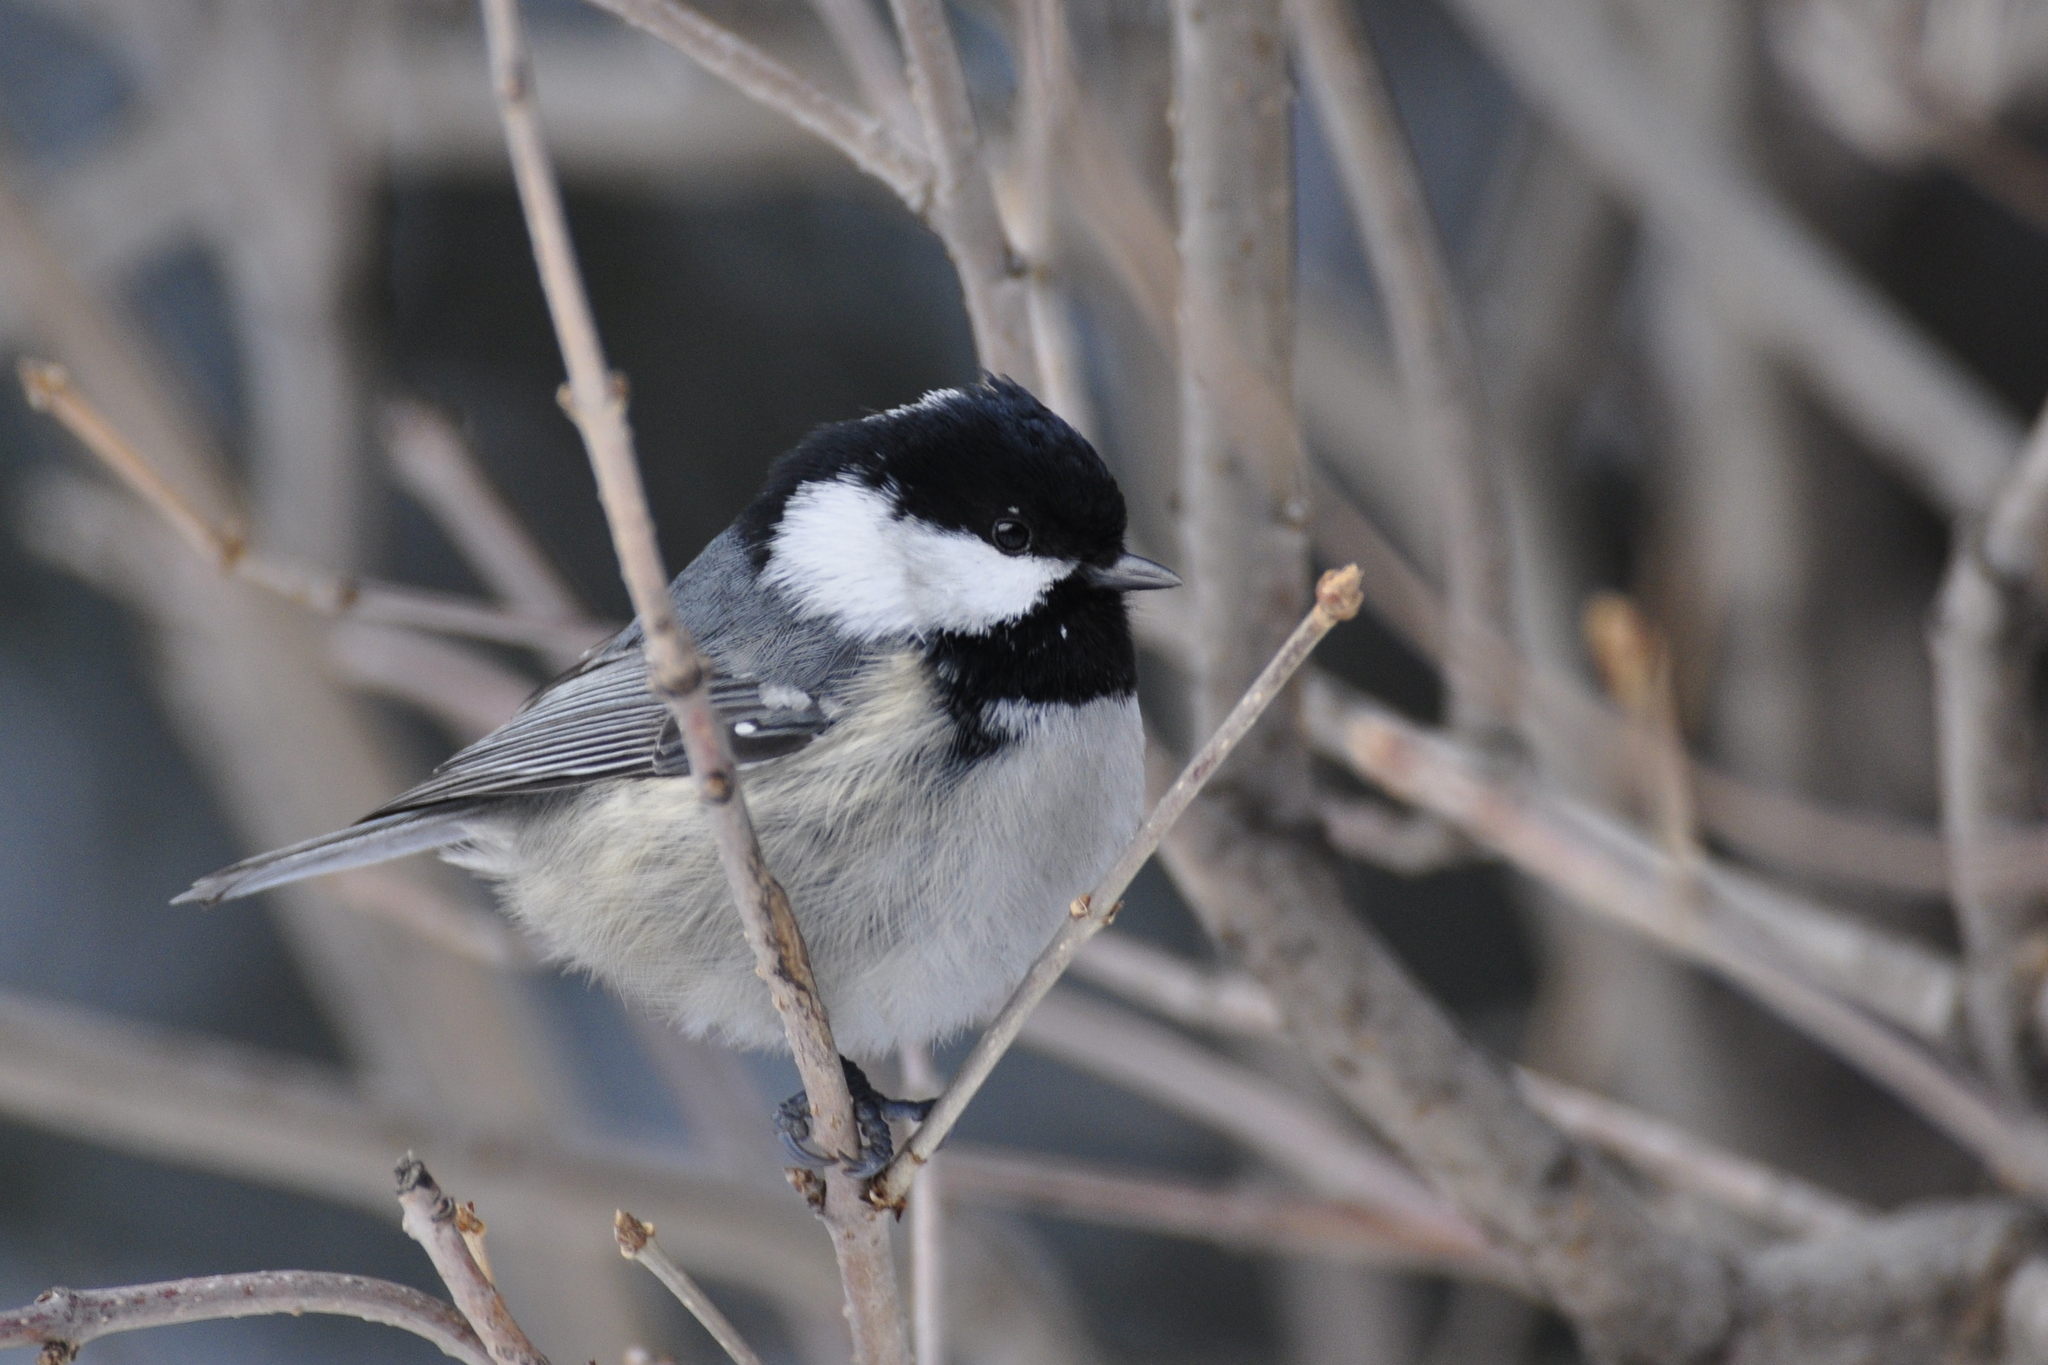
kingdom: Animalia
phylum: Chordata
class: Aves
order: Passeriformes
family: Paridae
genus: Periparus
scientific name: Periparus ater
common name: Coal tit
